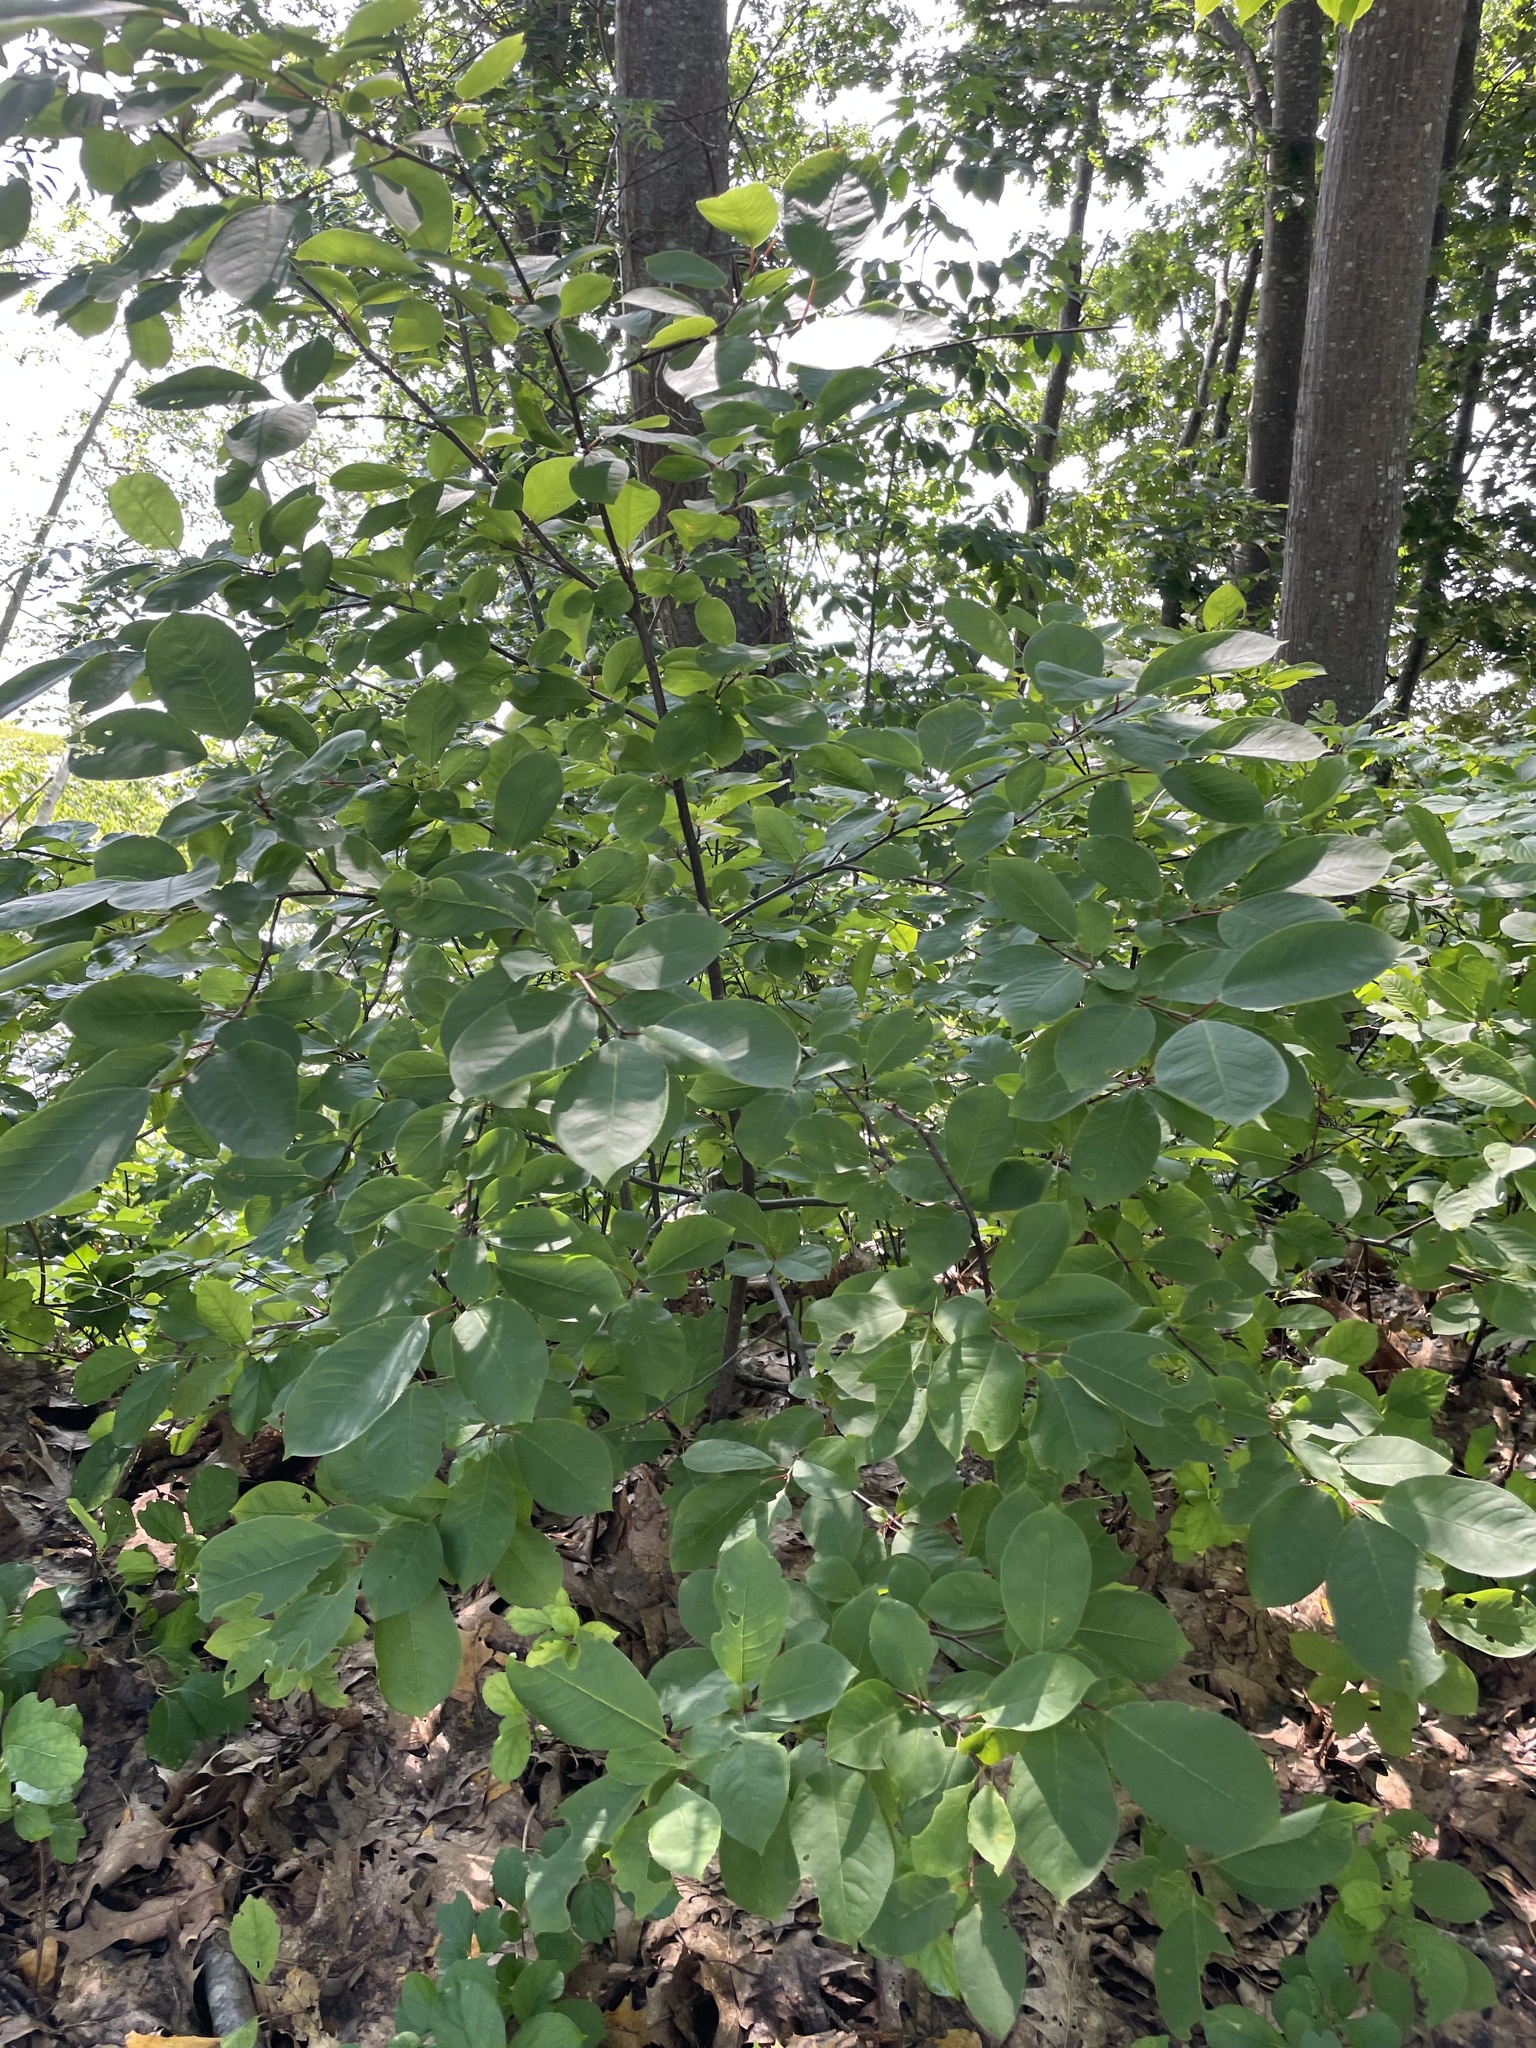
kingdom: Plantae
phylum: Tracheophyta
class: Magnoliopsida
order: Rosales
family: Rosaceae
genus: Prunus
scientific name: Prunus virginiana
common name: Chokecherry
